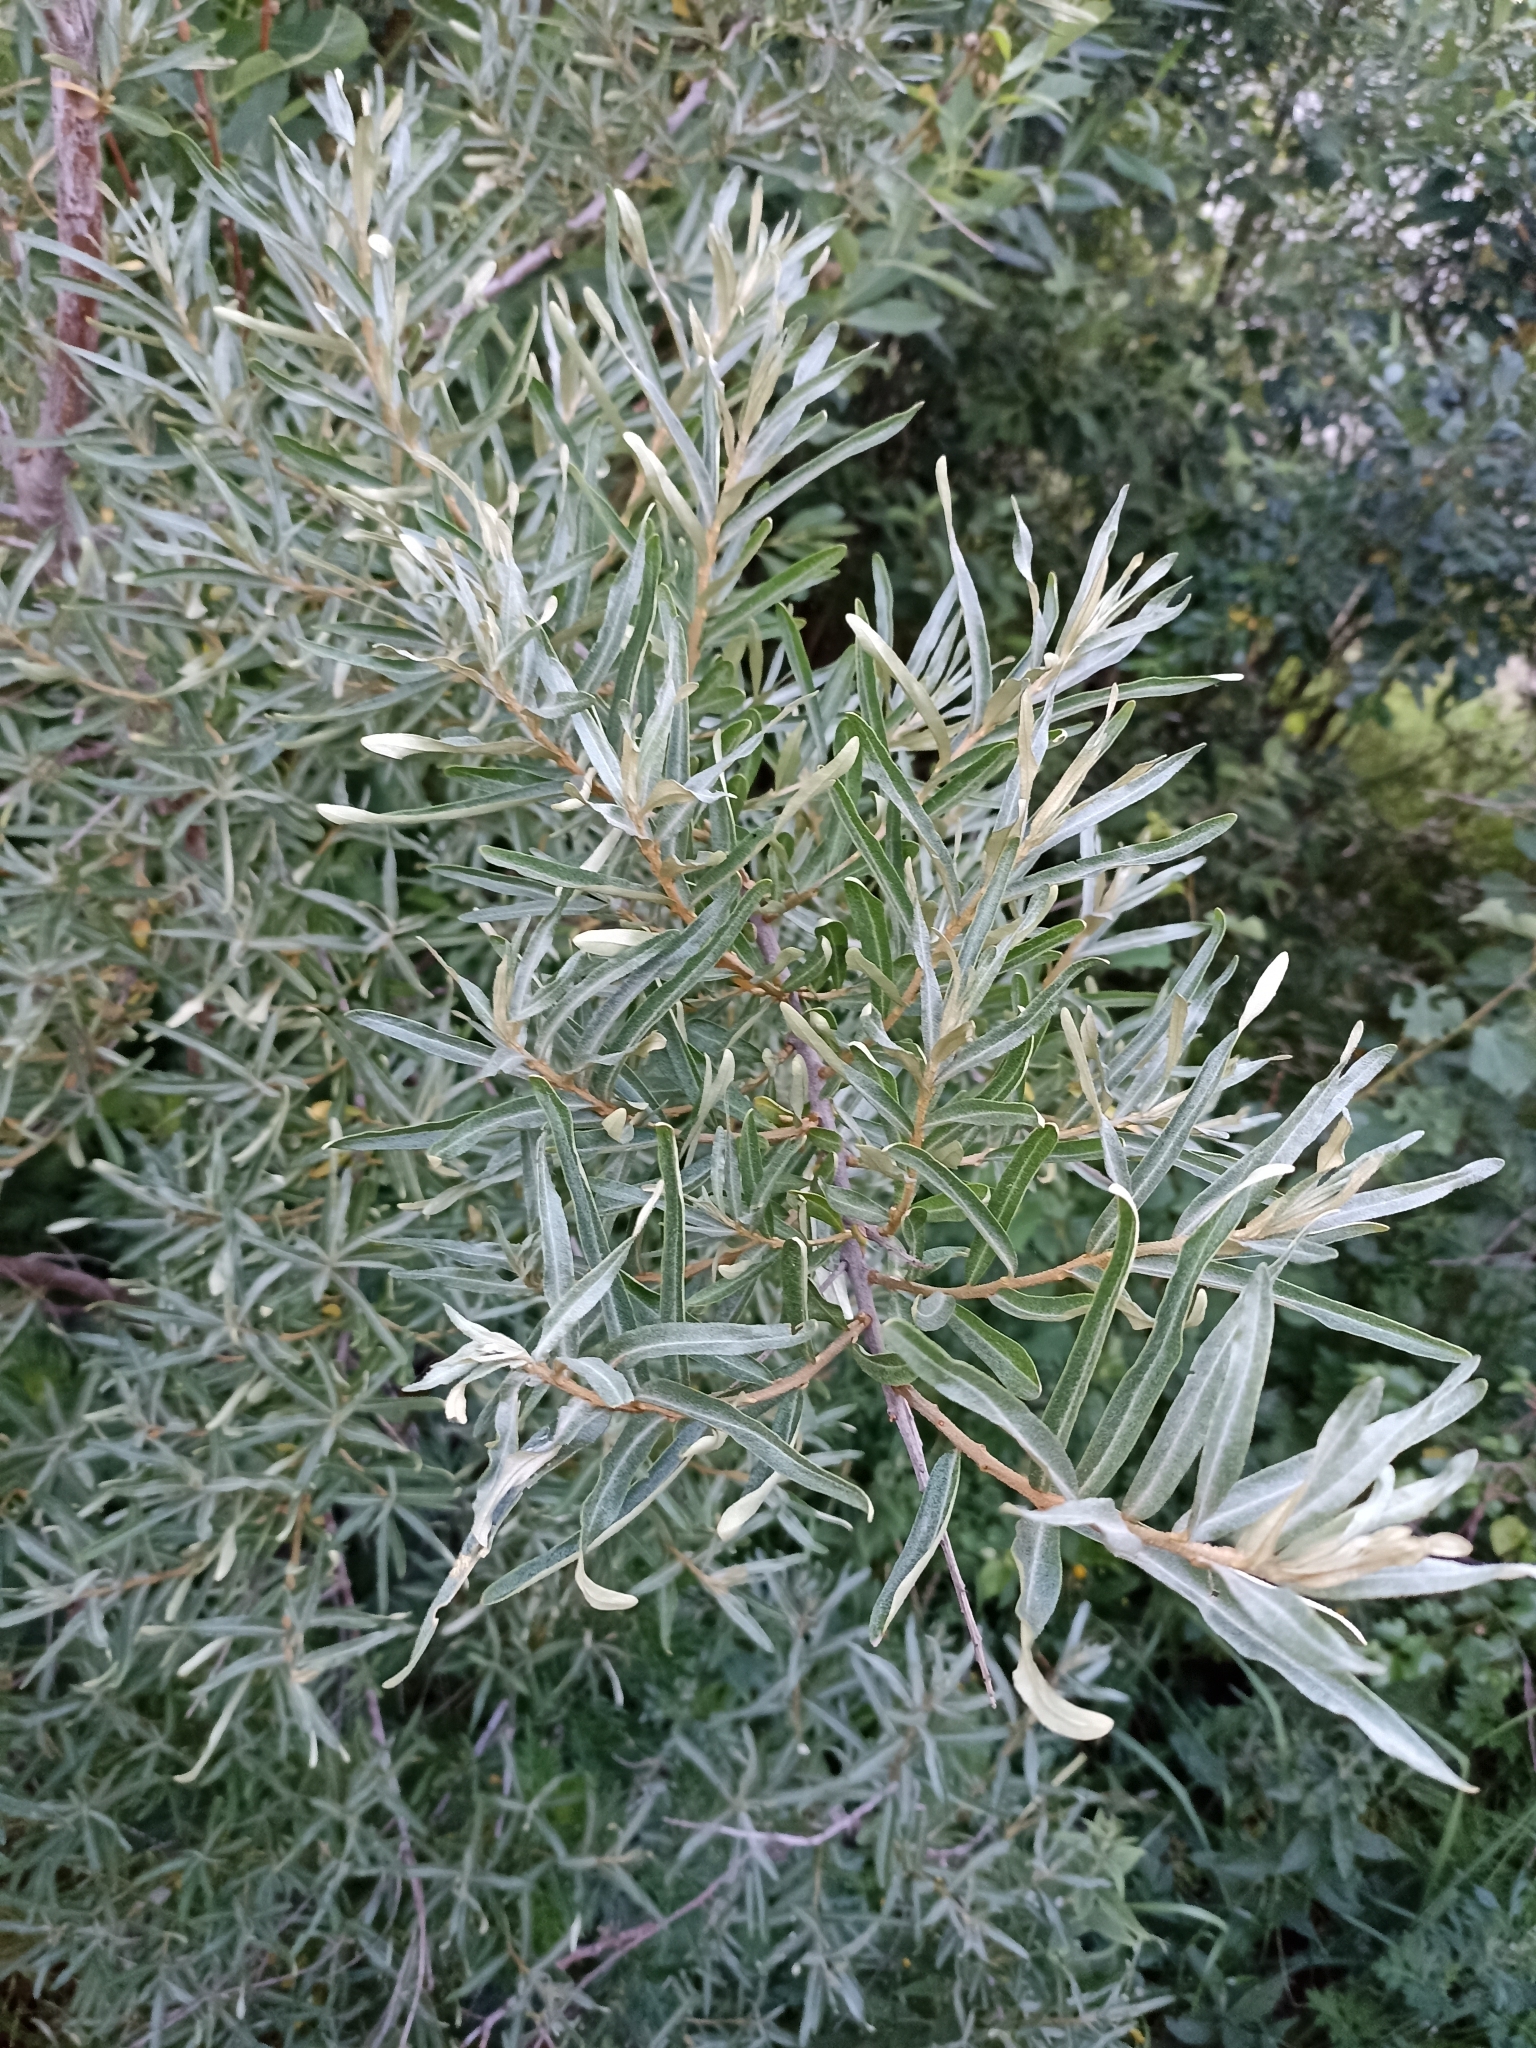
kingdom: Plantae
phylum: Tracheophyta
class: Magnoliopsida
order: Rosales
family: Elaeagnaceae
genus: Hippophae
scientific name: Hippophae rhamnoides
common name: Sea-buckthorn
